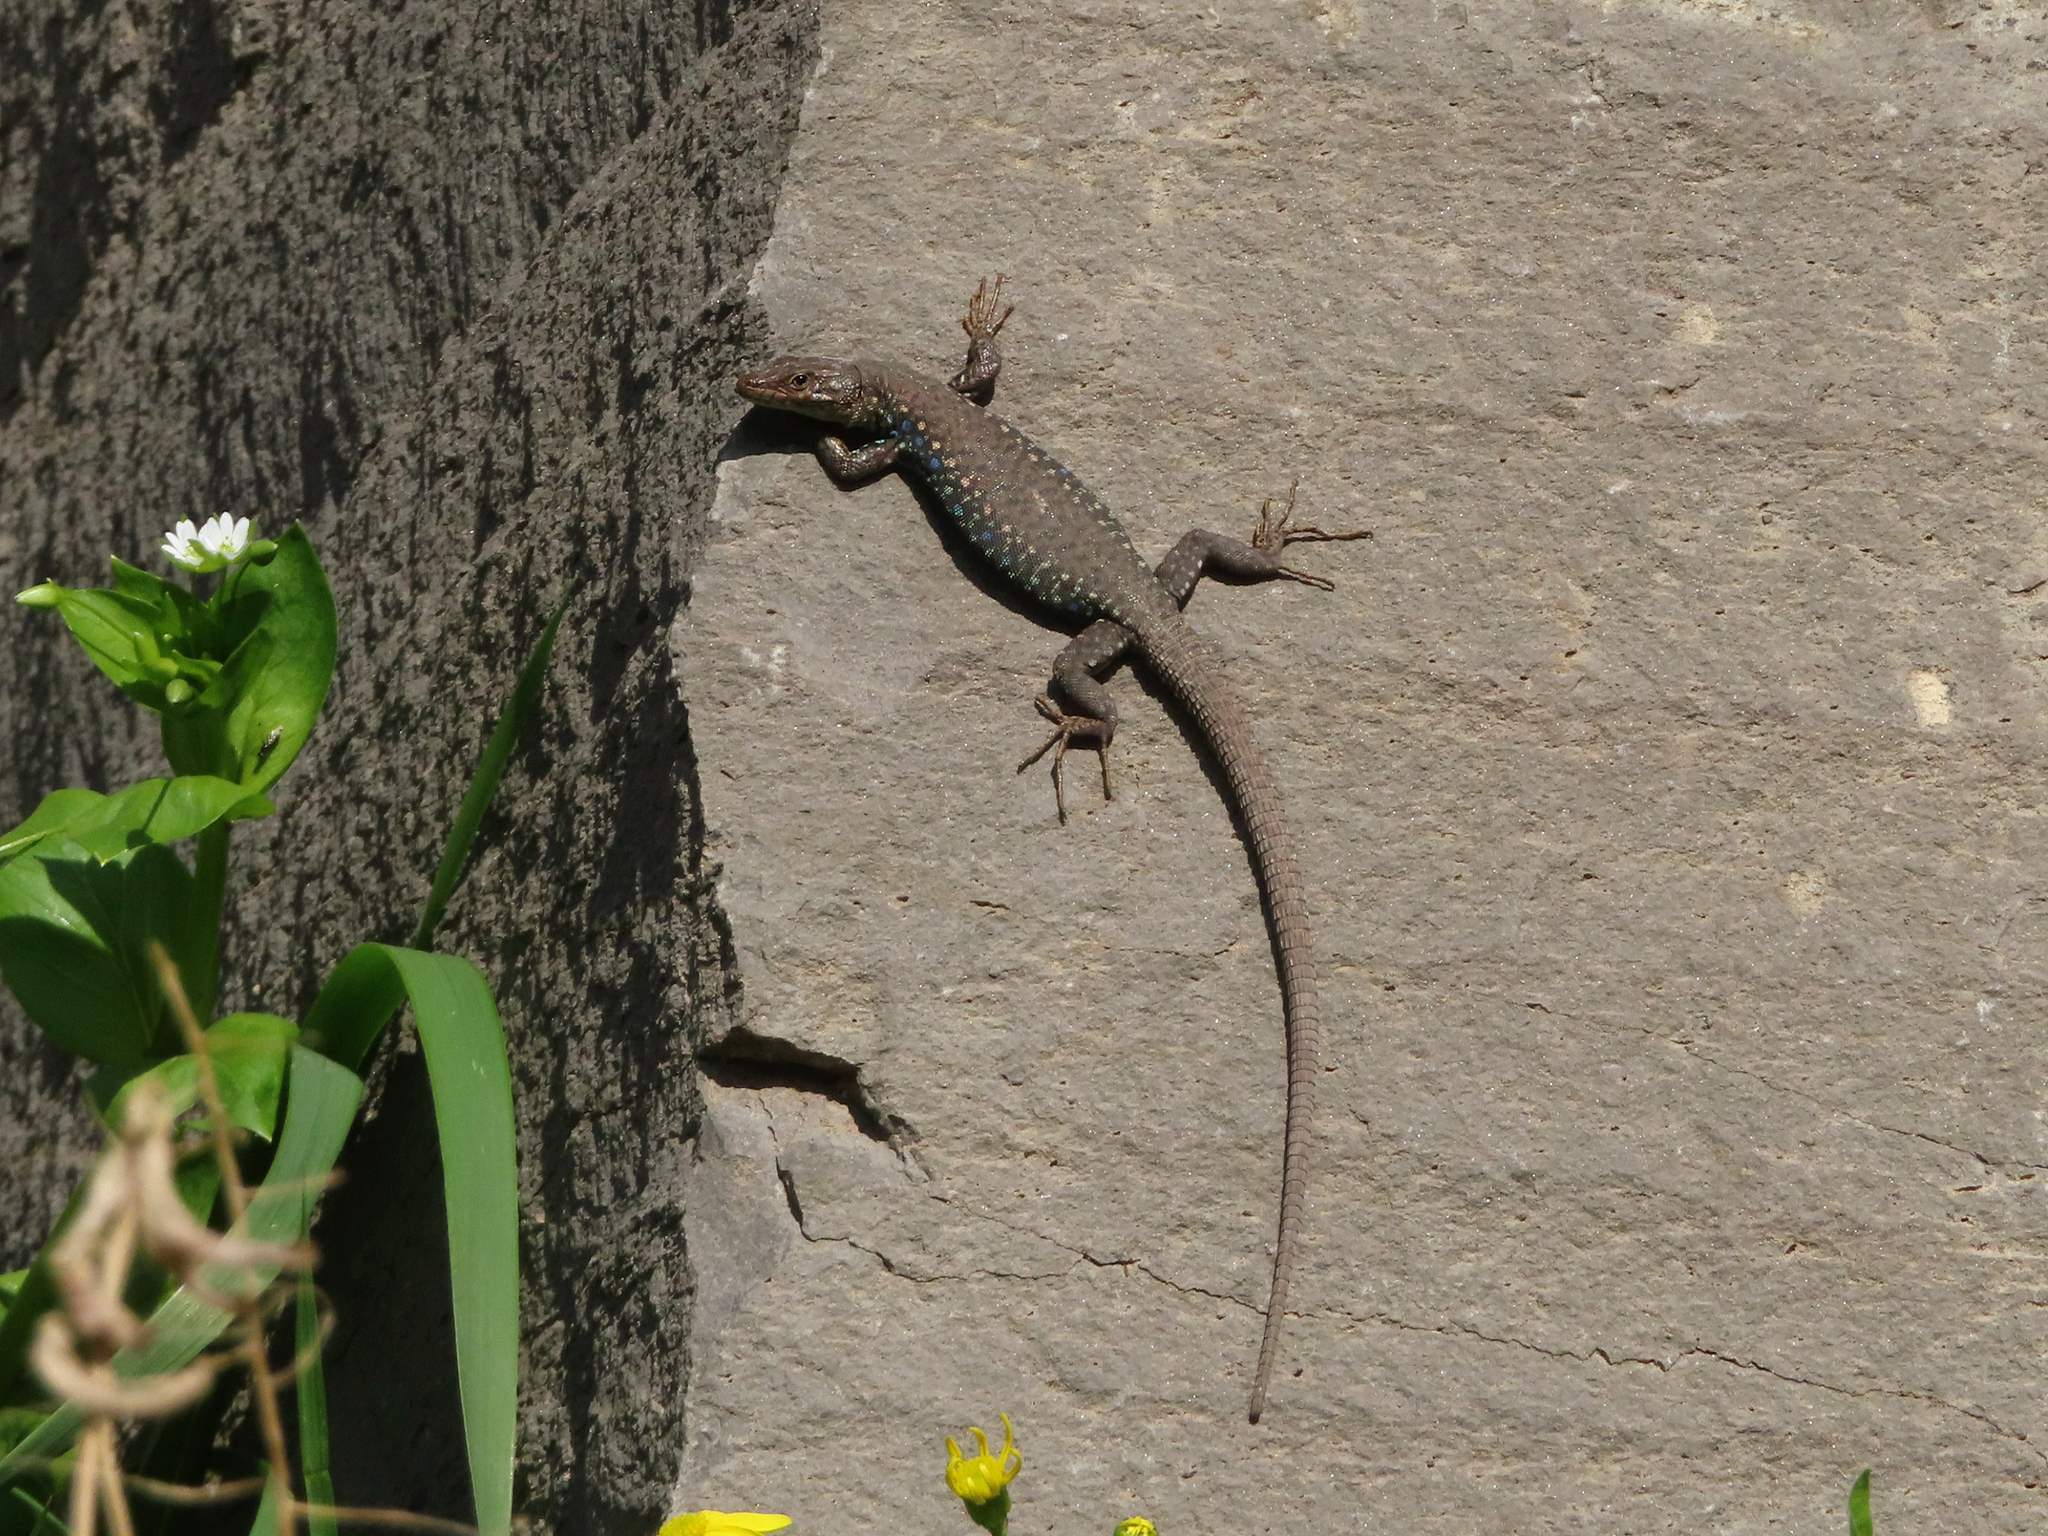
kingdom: Animalia
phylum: Chordata
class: Squamata
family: Lacertidae
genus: Darevskia
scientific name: Darevskia
